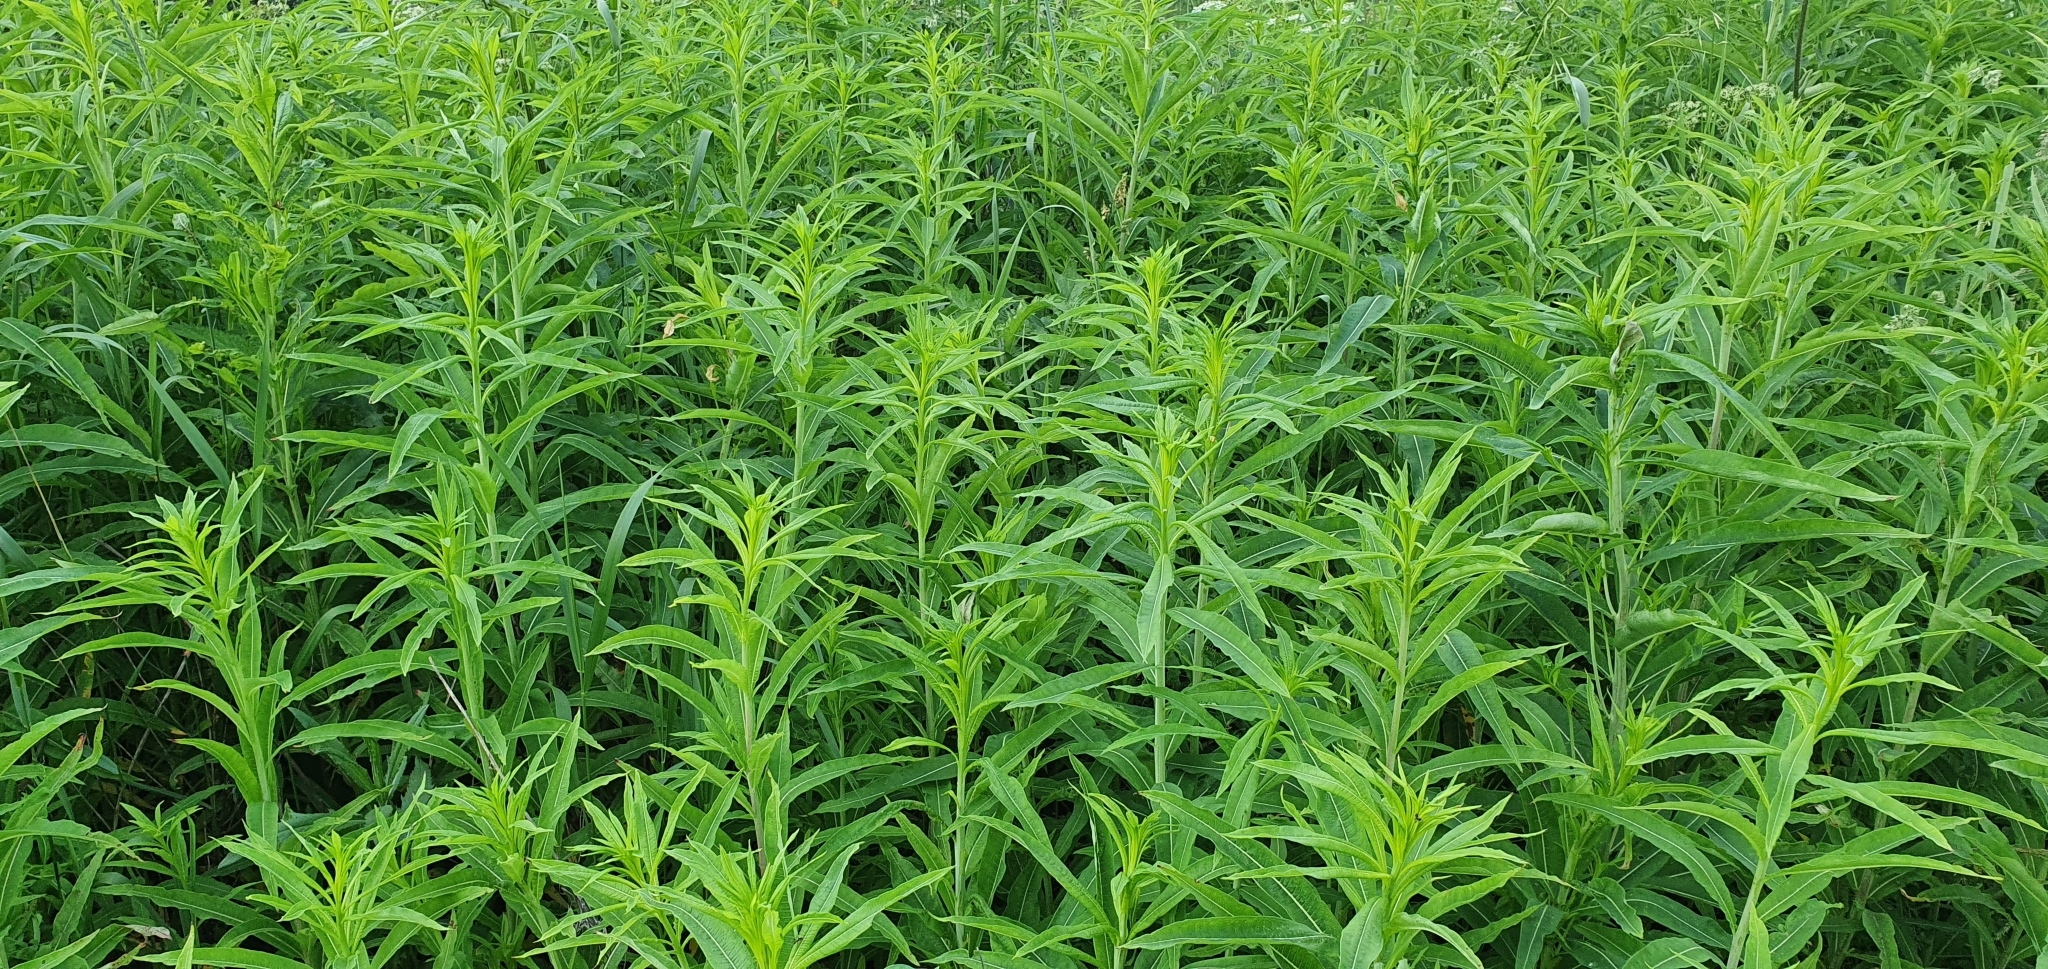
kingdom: Plantae
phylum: Tracheophyta
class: Magnoliopsida
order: Myrtales
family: Onagraceae
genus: Chamaenerion
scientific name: Chamaenerion angustifolium
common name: Fireweed
